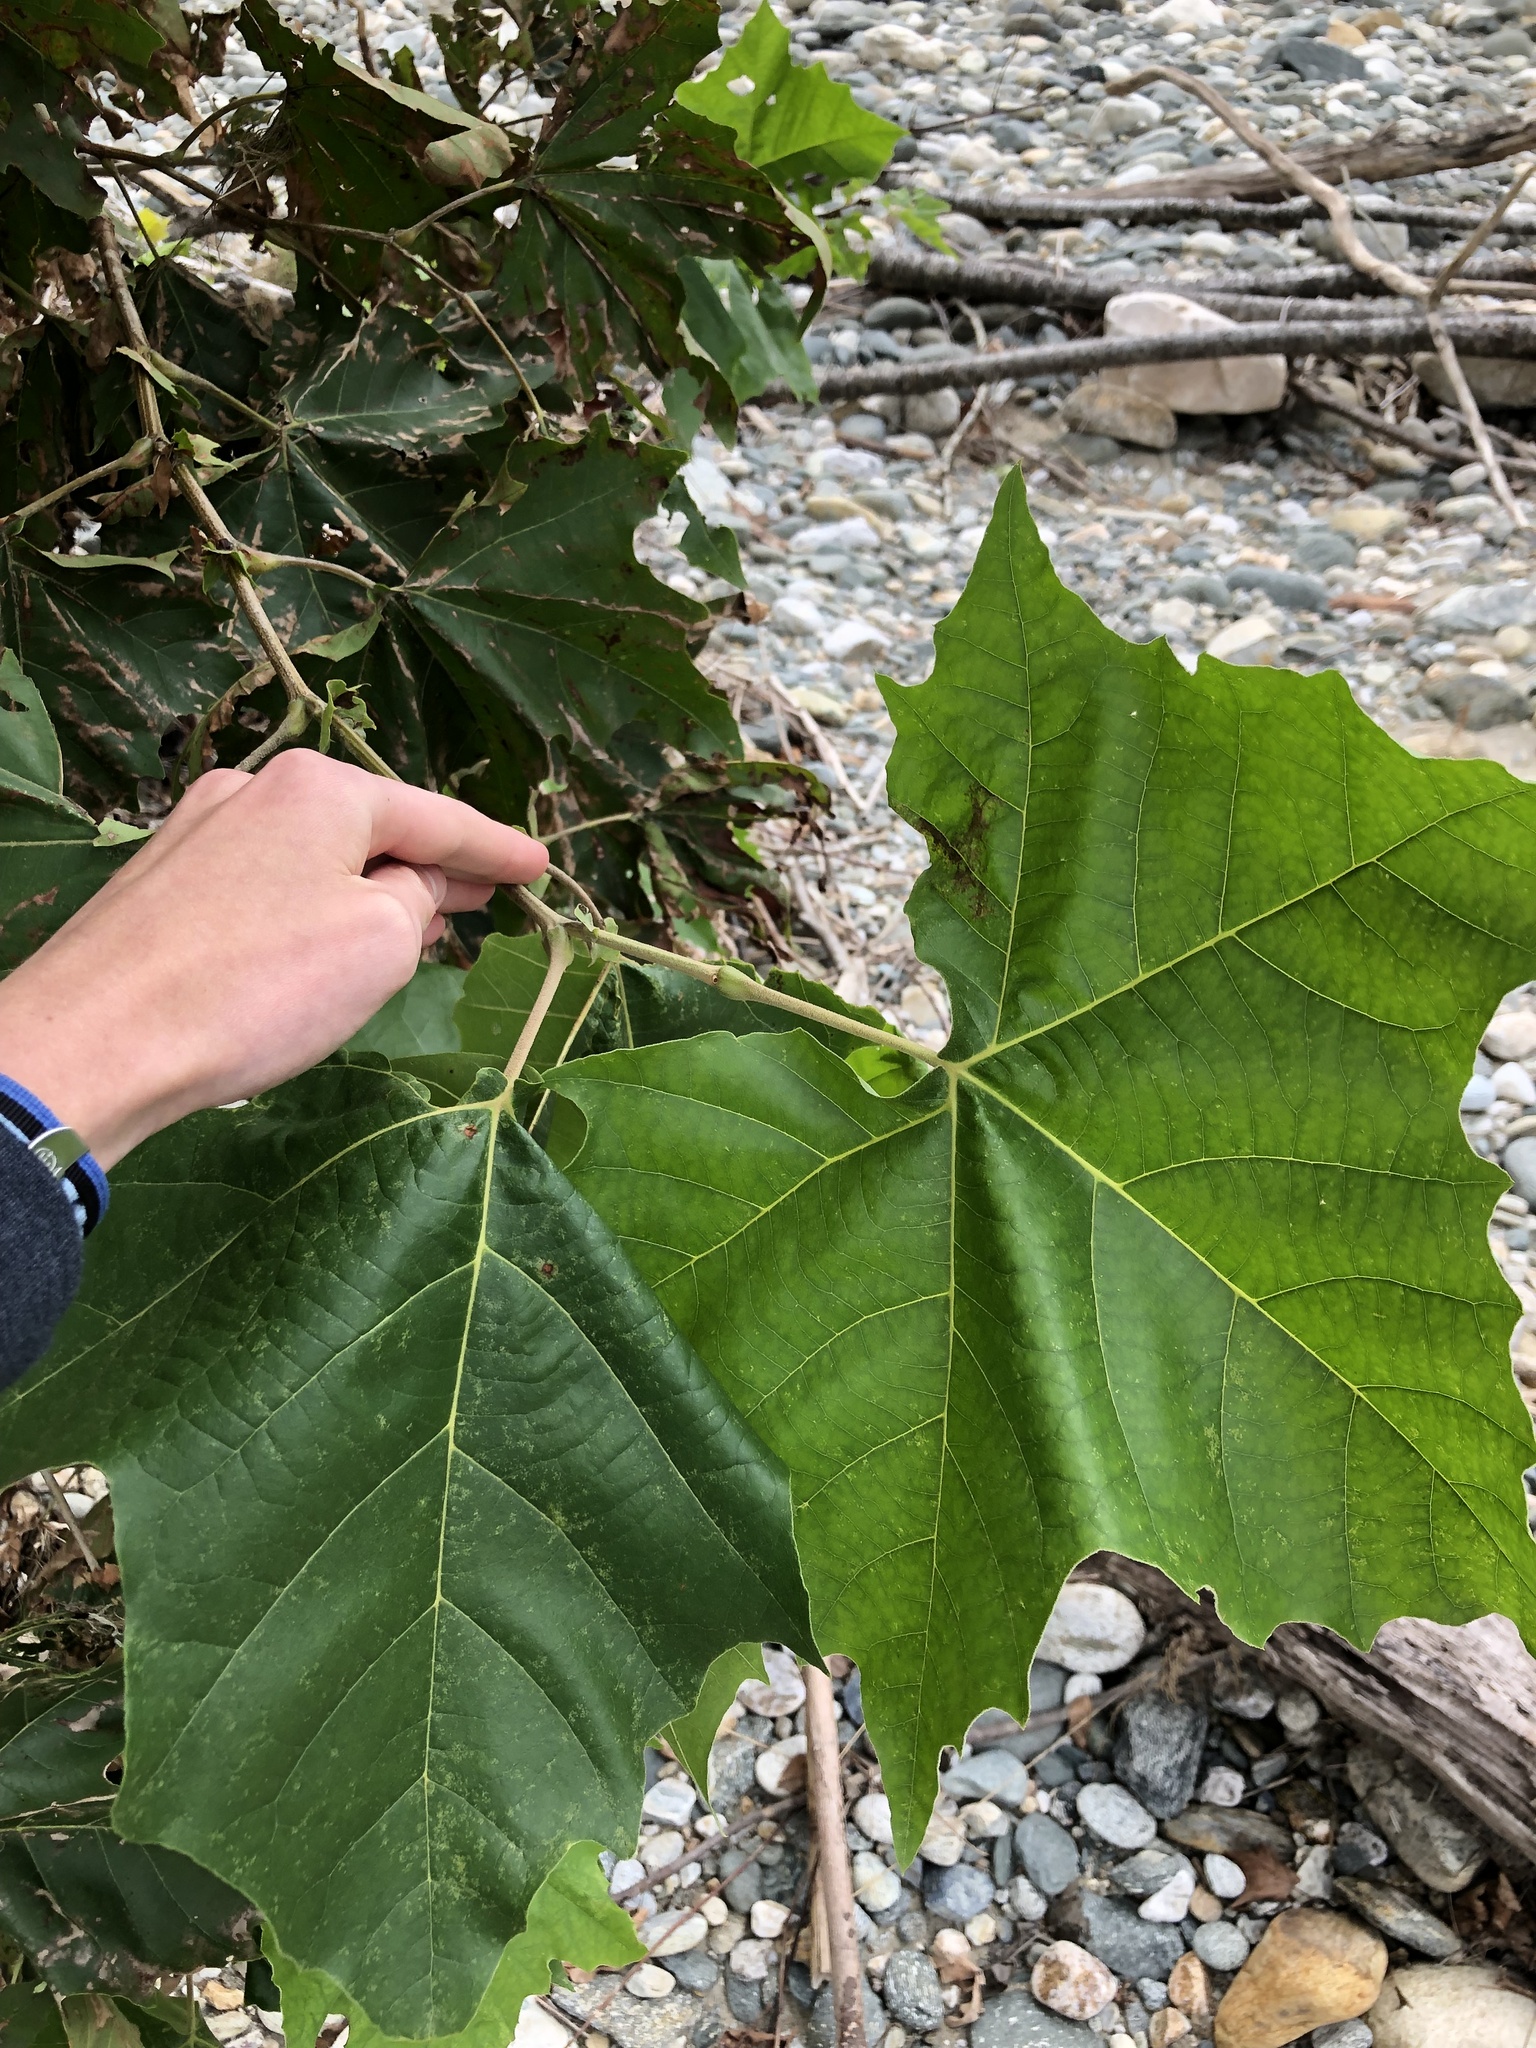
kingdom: Plantae
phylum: Tracheophyta
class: Magnoliopsida
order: Proteales
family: Platanaceae
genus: Platanus
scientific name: Platanus occidentalis
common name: American sycamore
